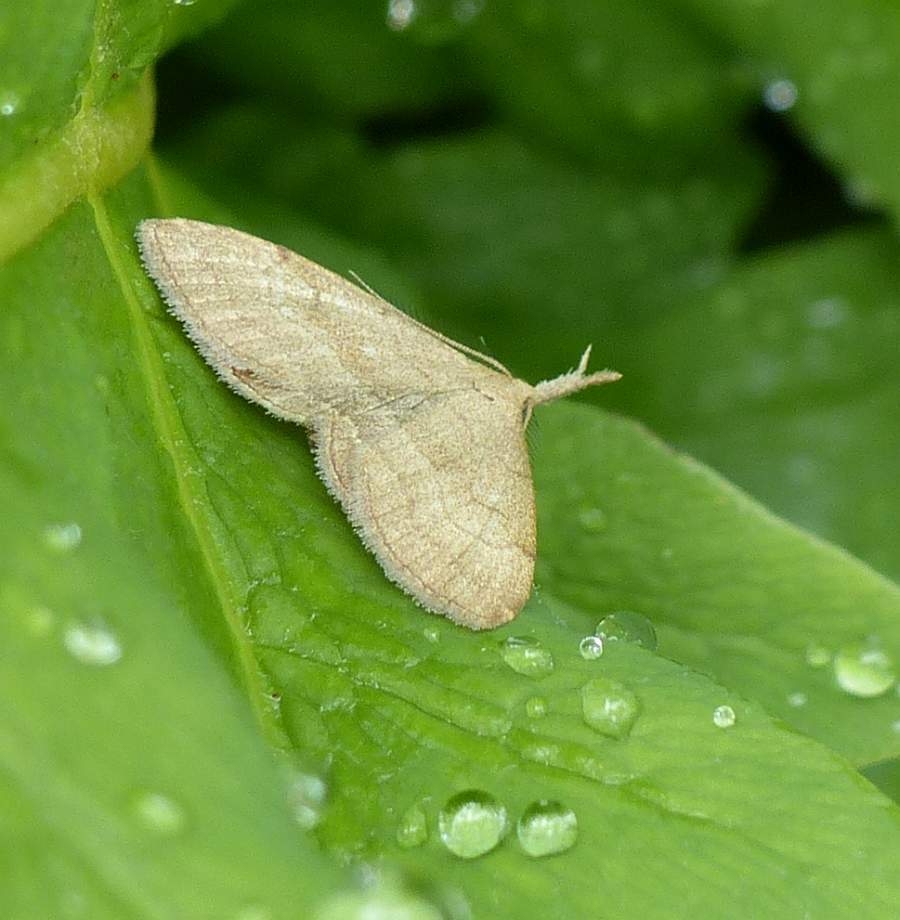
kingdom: Animalia
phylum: Arthropoda
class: Insecta
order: Lepidoptera
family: Erebidae
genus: Phalaenostola
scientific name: Phalaenostola metonalis
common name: Pale phalaenostola moth
